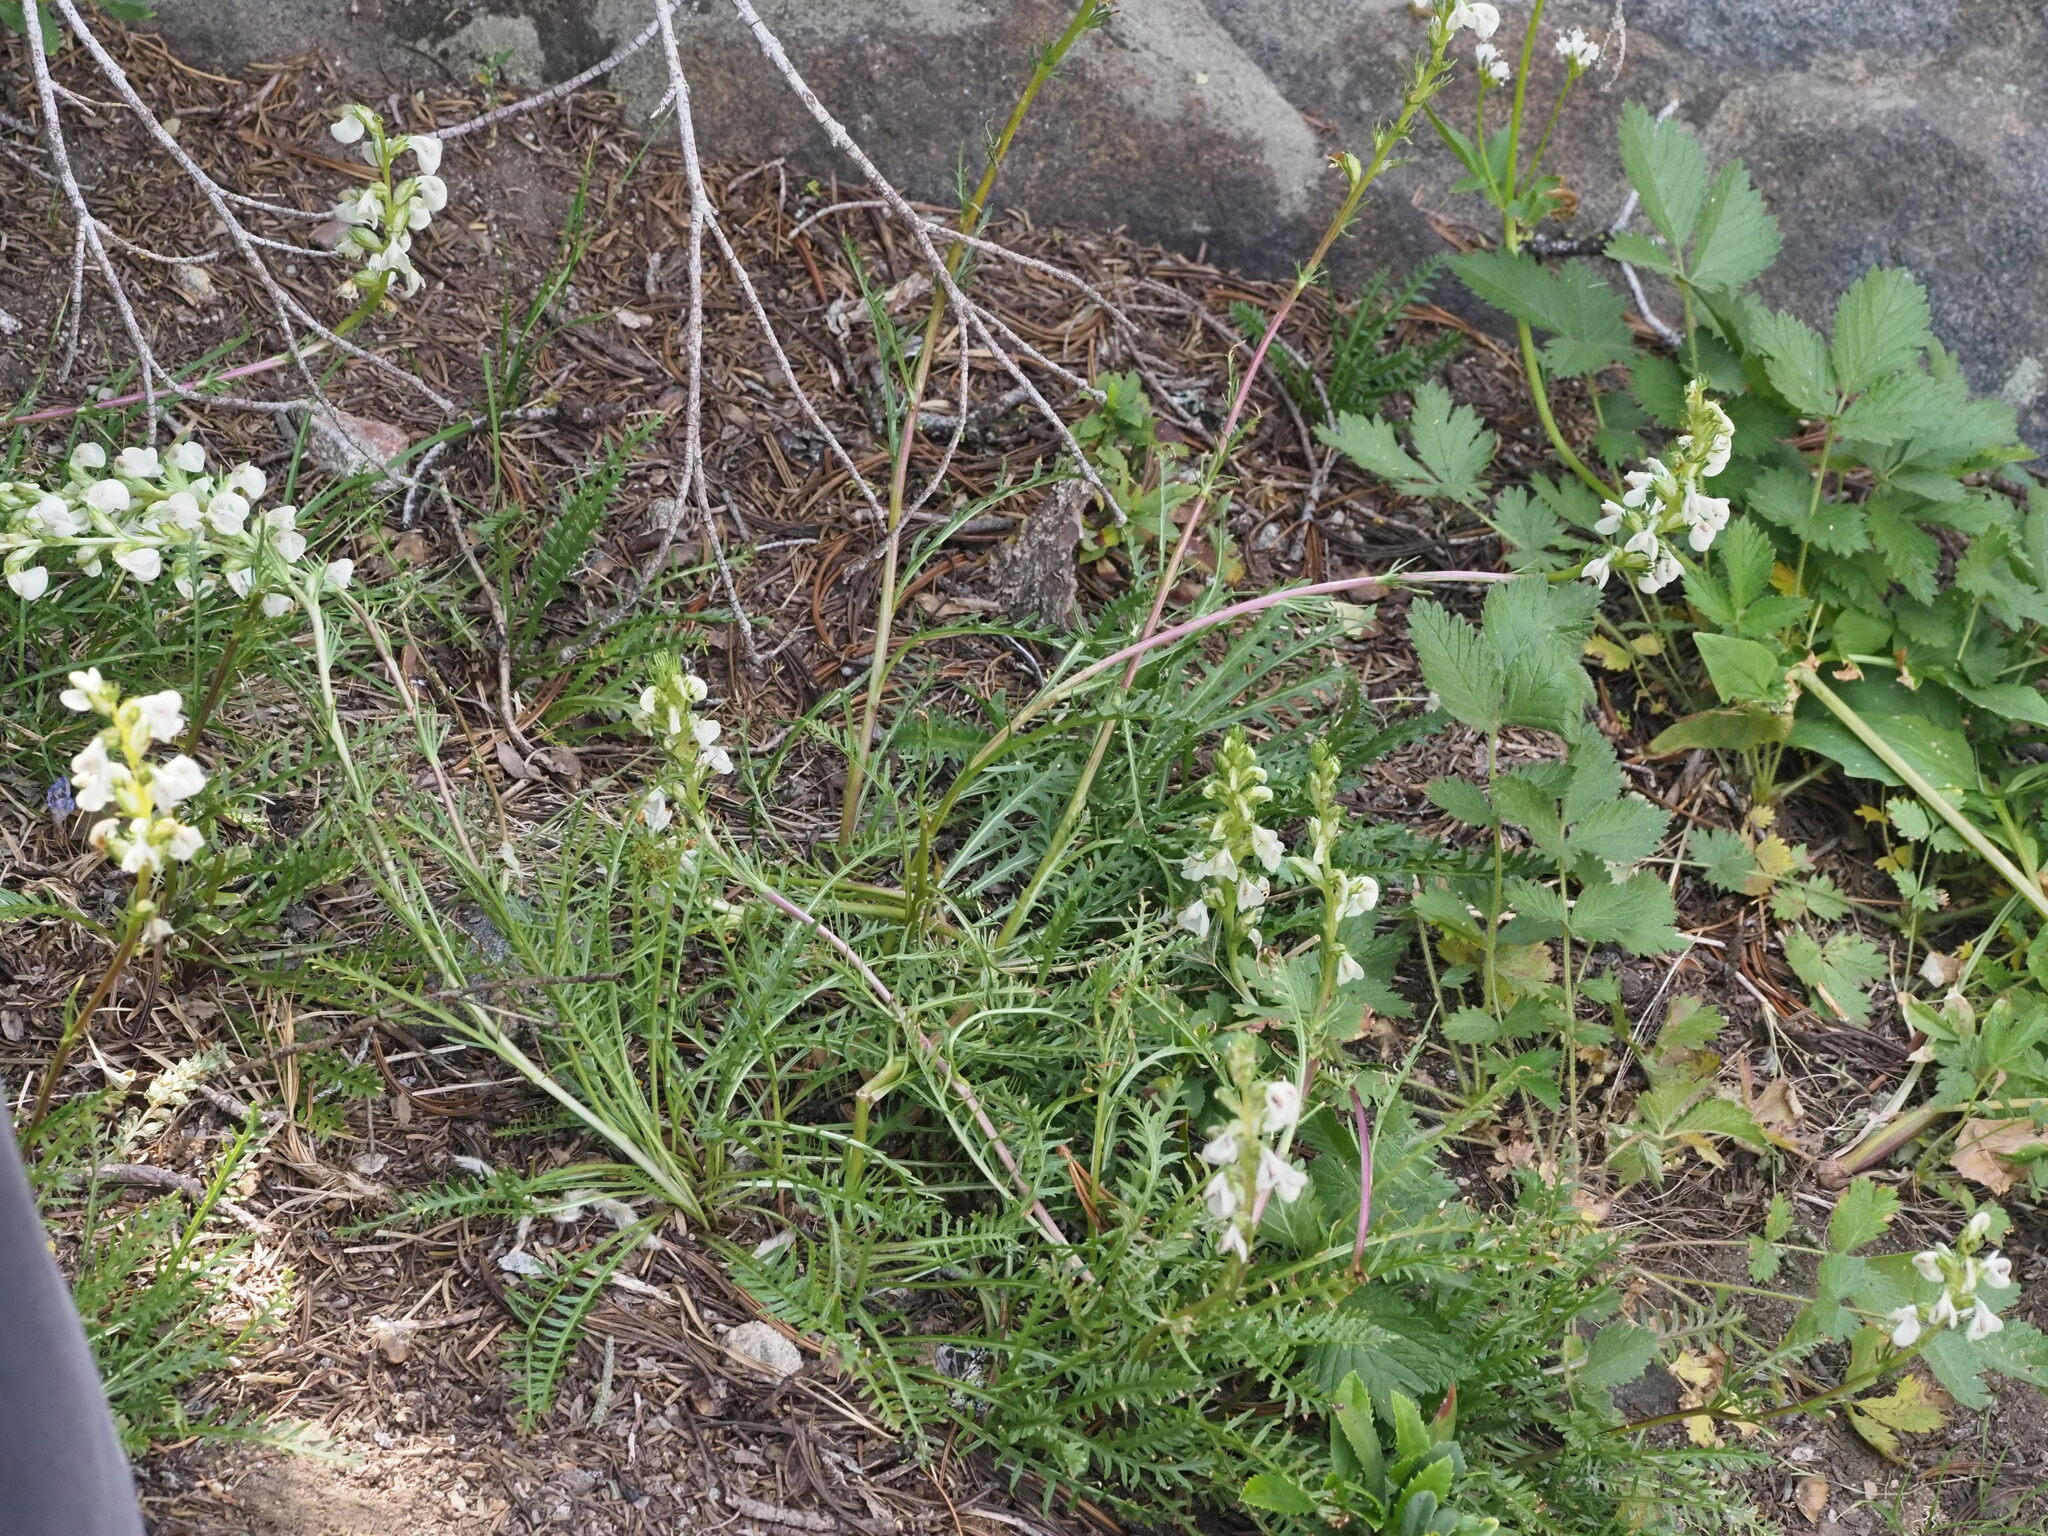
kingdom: Plantae
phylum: Tracheophyta
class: Magnoliopsida
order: Lamiales
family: Orobanchaceae
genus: Pedicularis
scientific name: Pedicularis contorta
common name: Coiled lousewort
